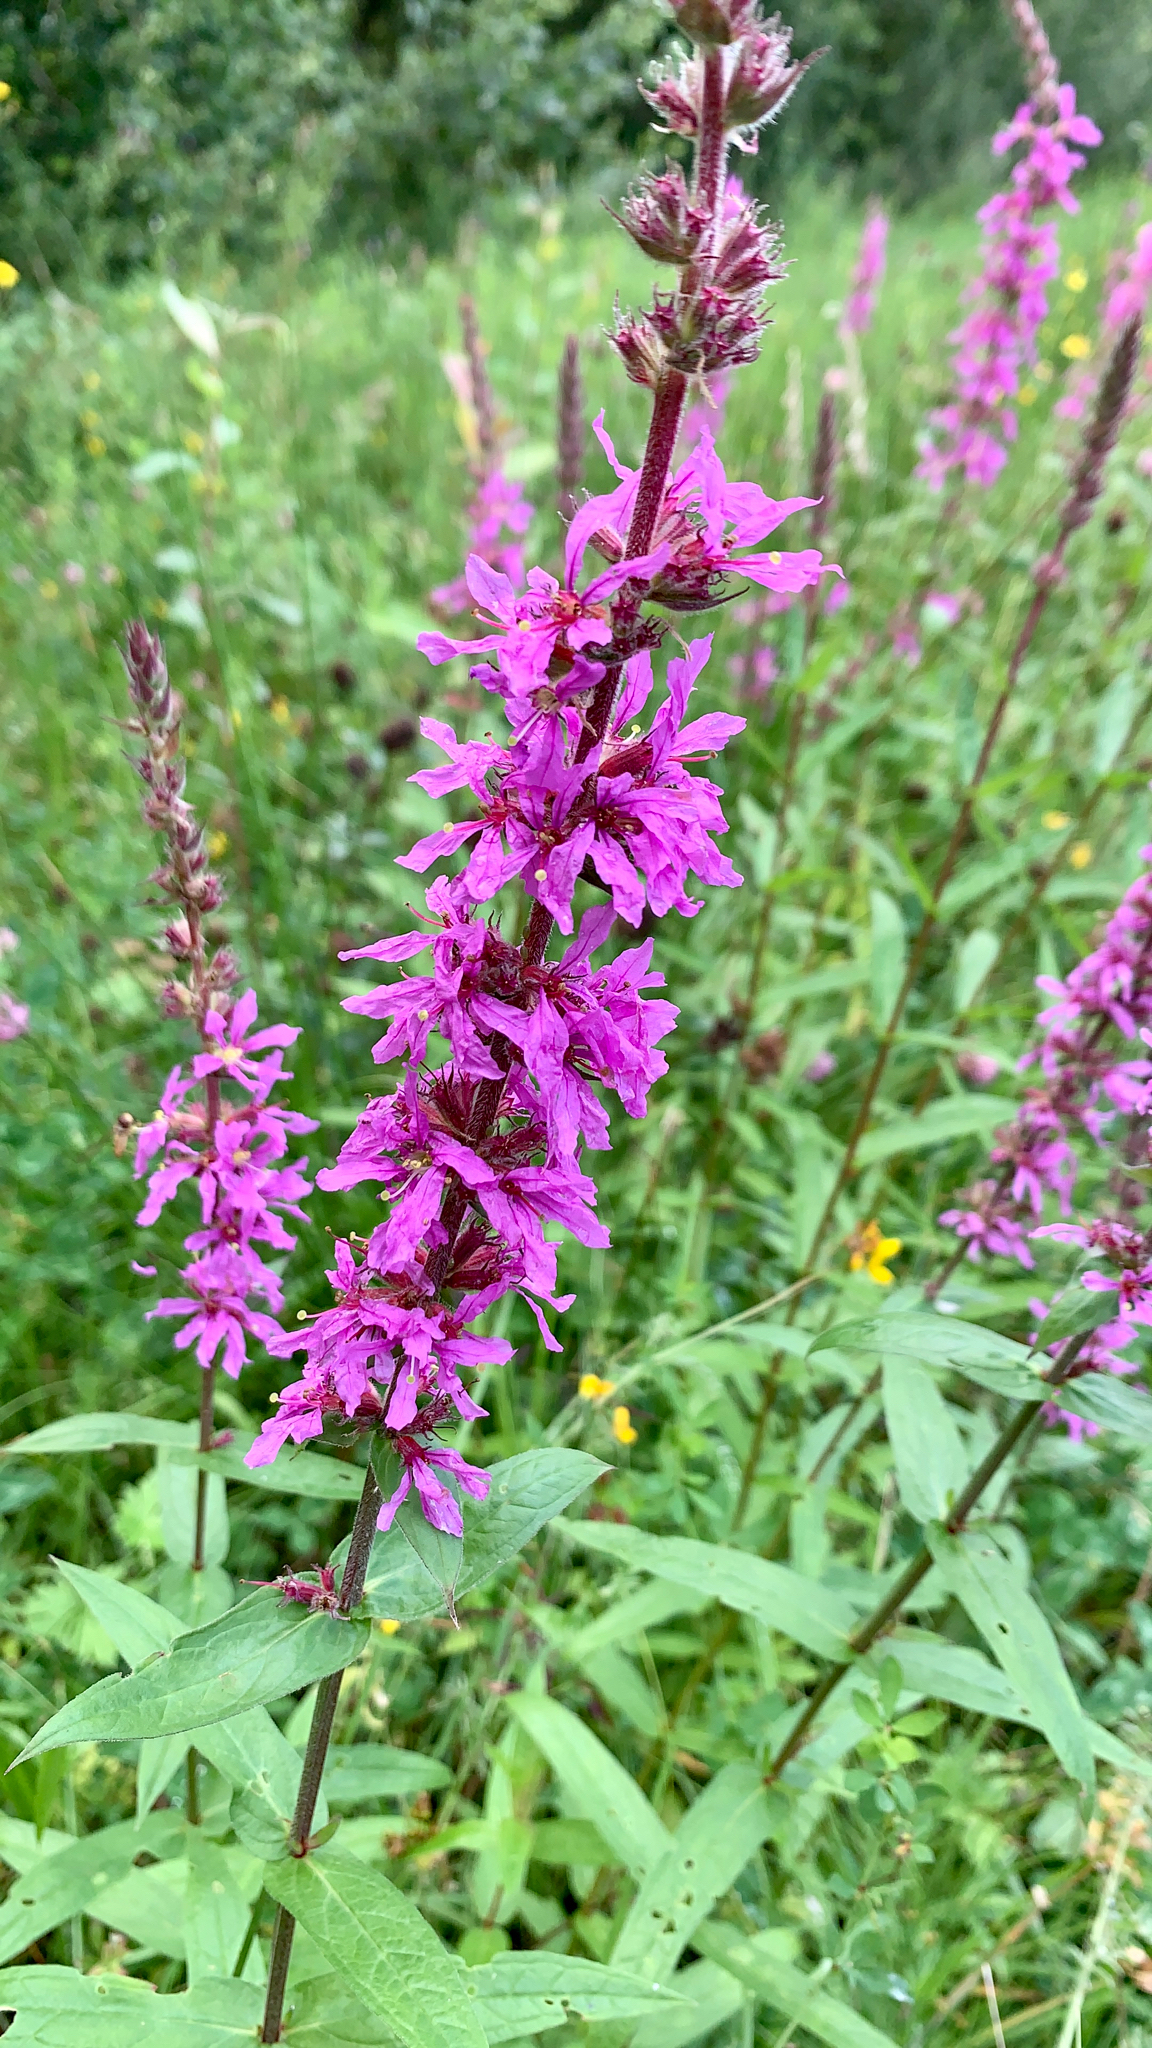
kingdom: Plantae
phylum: Tracheophyta
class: Magnoliopsida
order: Myrtales
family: Lythraceae
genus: Lythrum
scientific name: Lythrum salicaria
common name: Purple loosestrife
